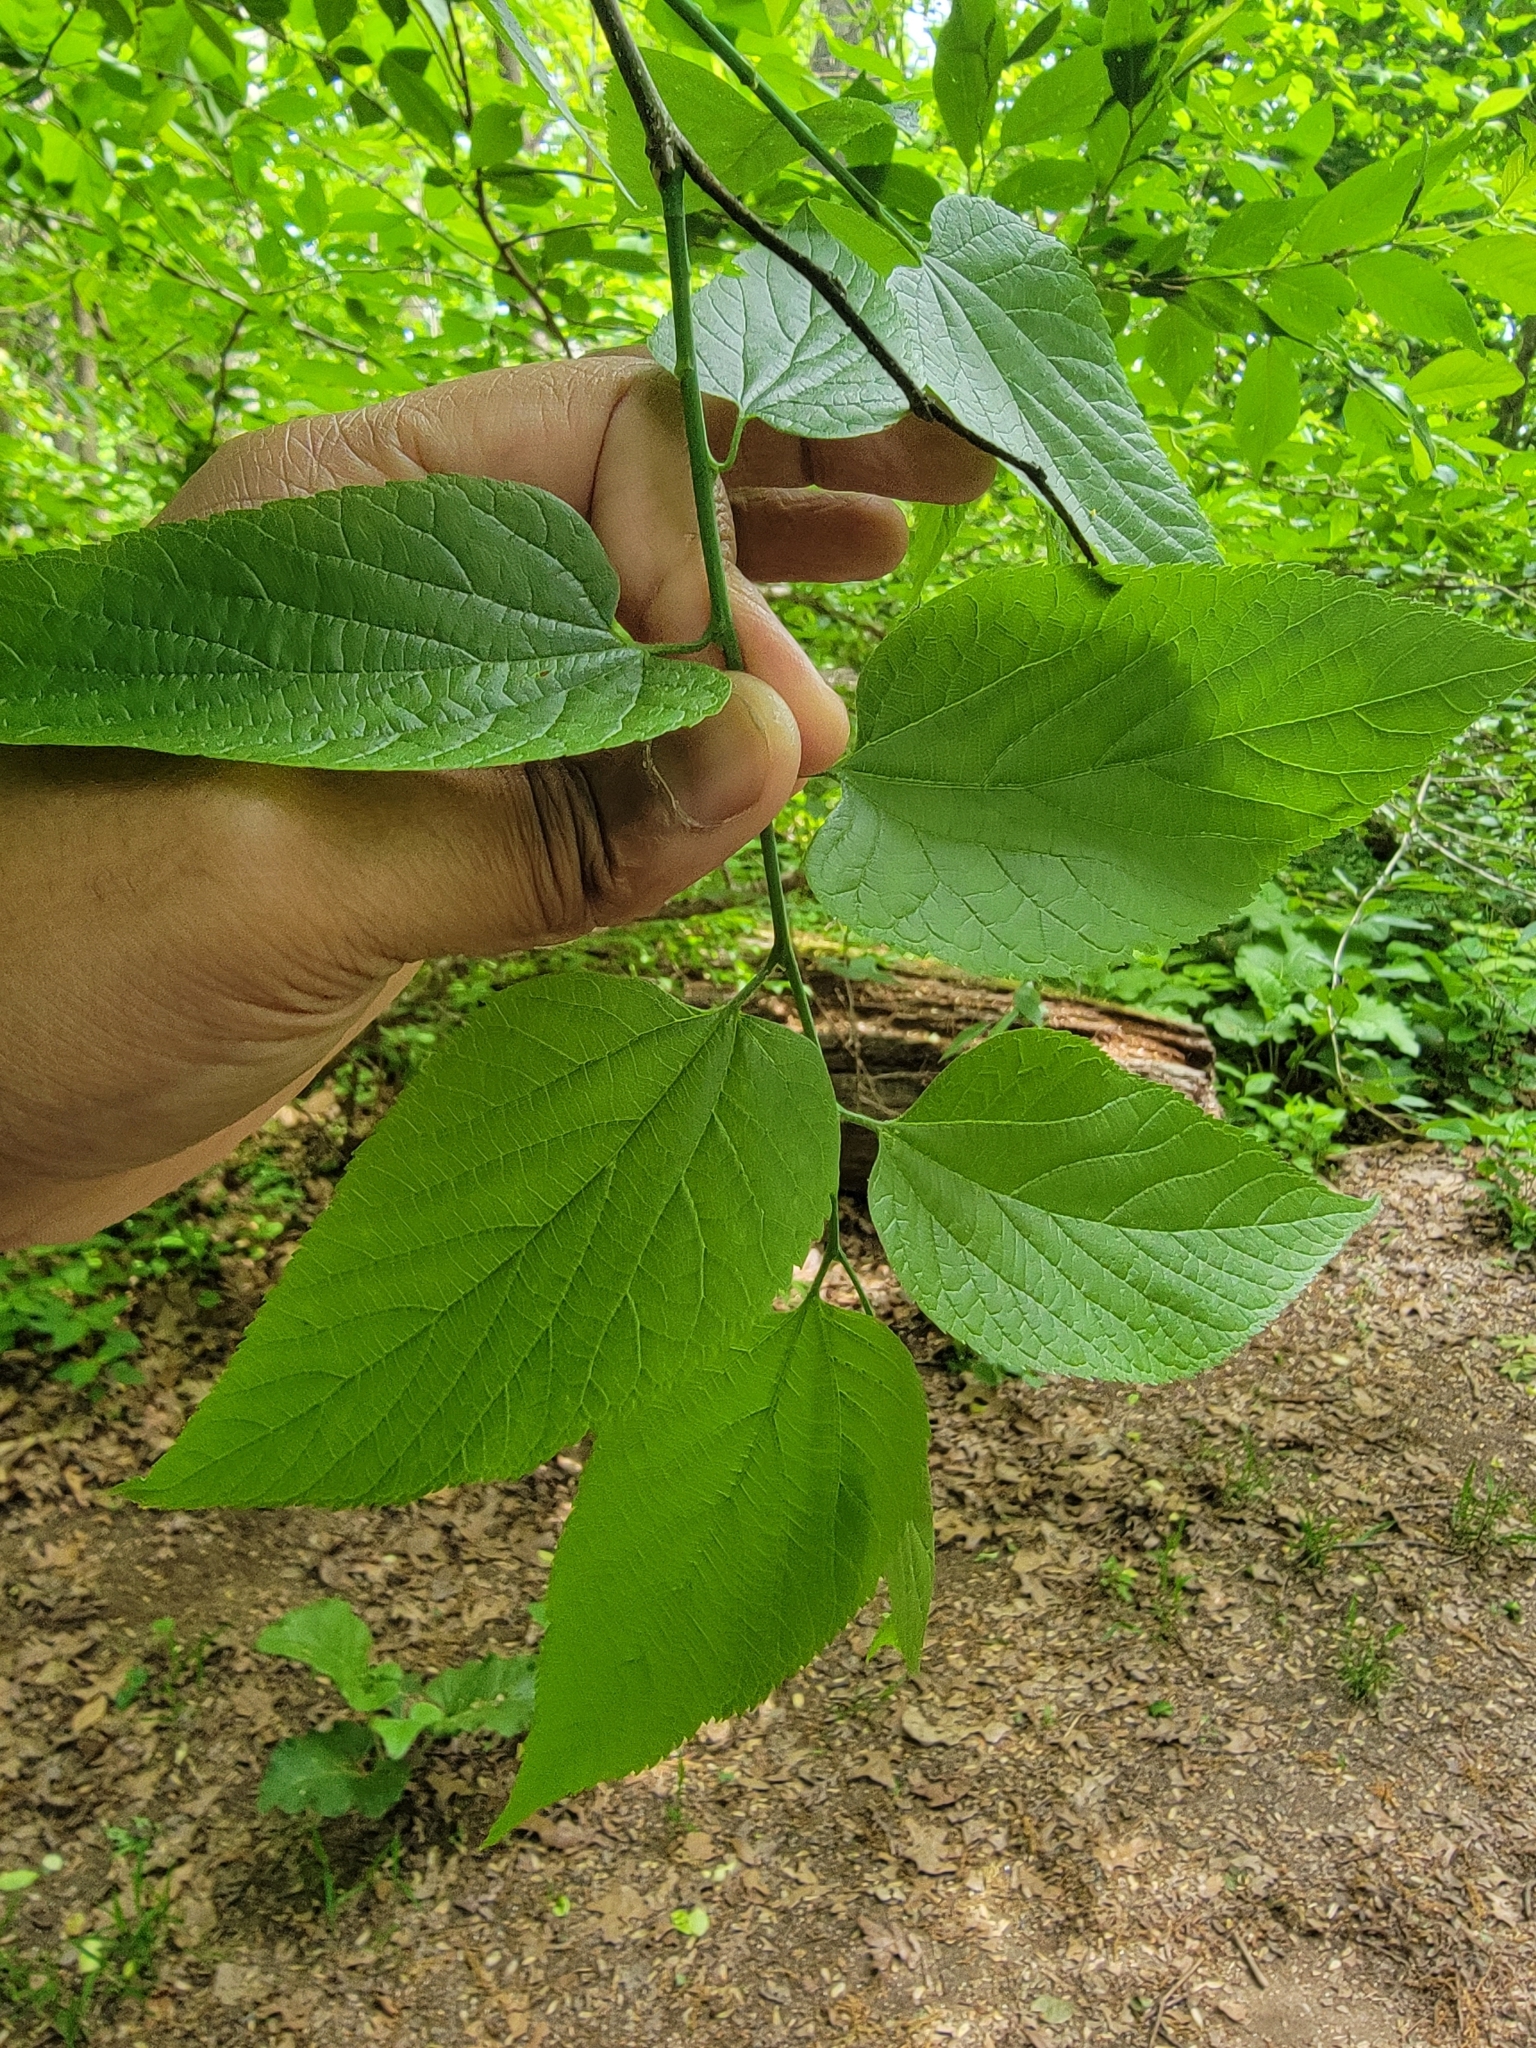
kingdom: Plantae
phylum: Tracheophyta
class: Magnoliopsida
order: Rosales
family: Cannabaceae
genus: Celtis
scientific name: Celtis occidentalis
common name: Common hackberry
